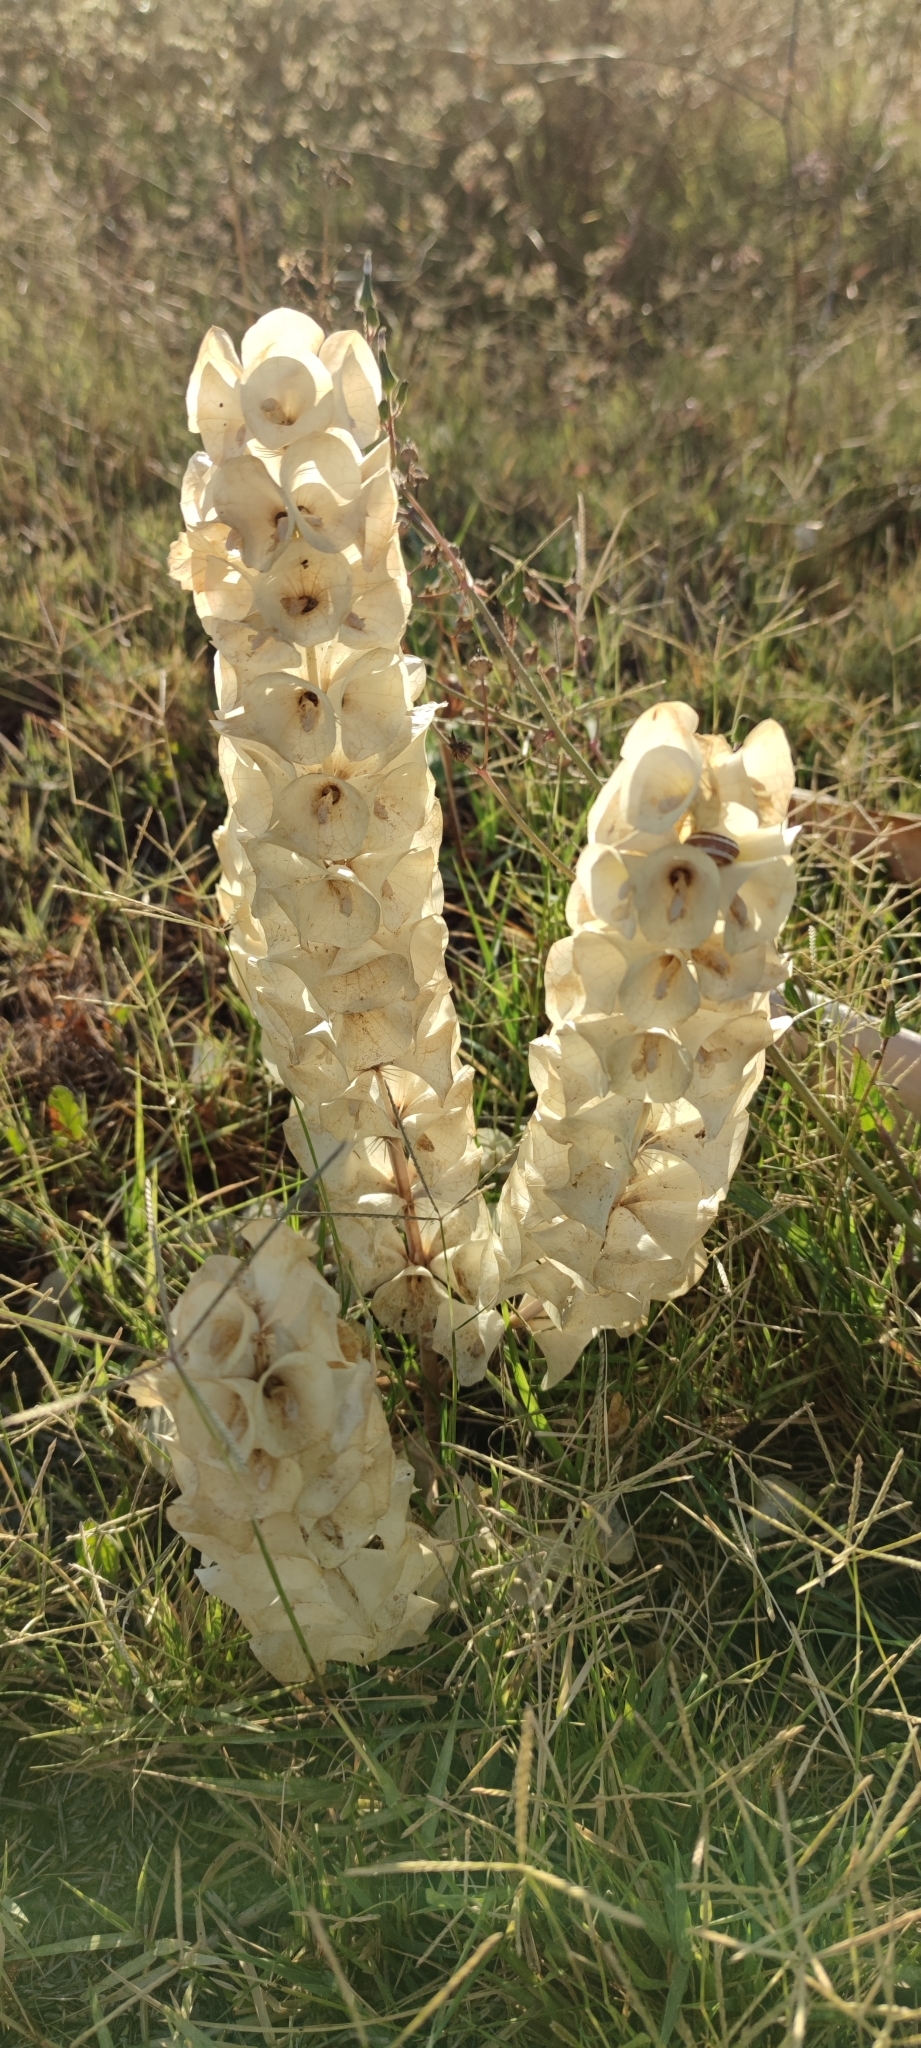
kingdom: Plantae
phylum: Tracheophyta
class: Magnoliopsida
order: Lamiales
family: Lamiaceae
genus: Moluccella
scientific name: Moluccella laevis
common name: Shellflower
